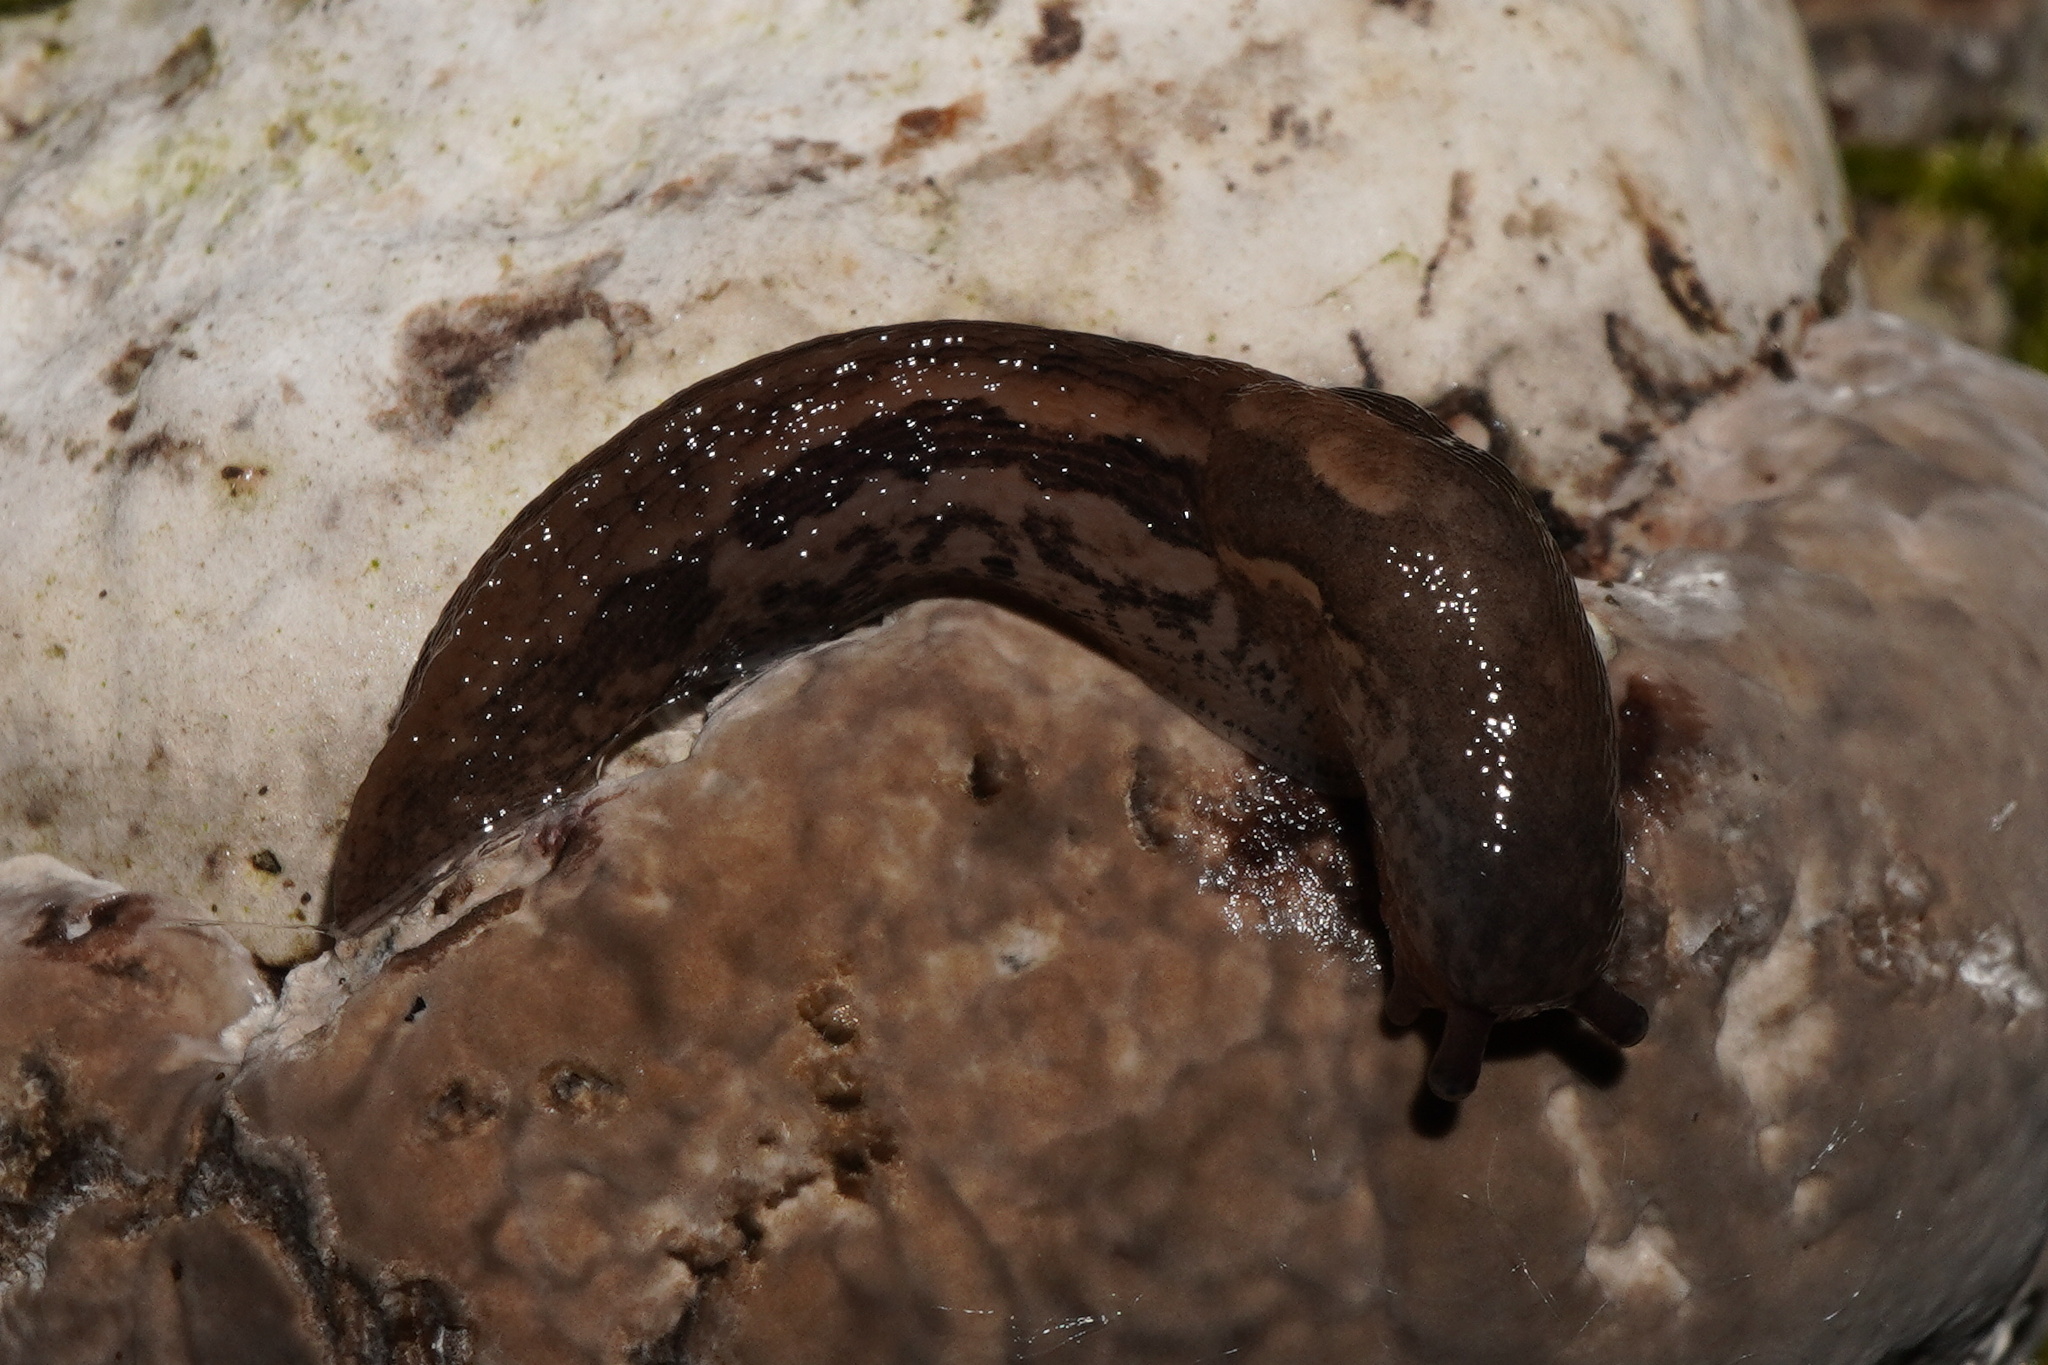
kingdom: Animalia
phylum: Mollusca
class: Gastropoda
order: Stylommatophora
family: Limacidae
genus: Limax
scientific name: Limax maximus
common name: Great grey slug
